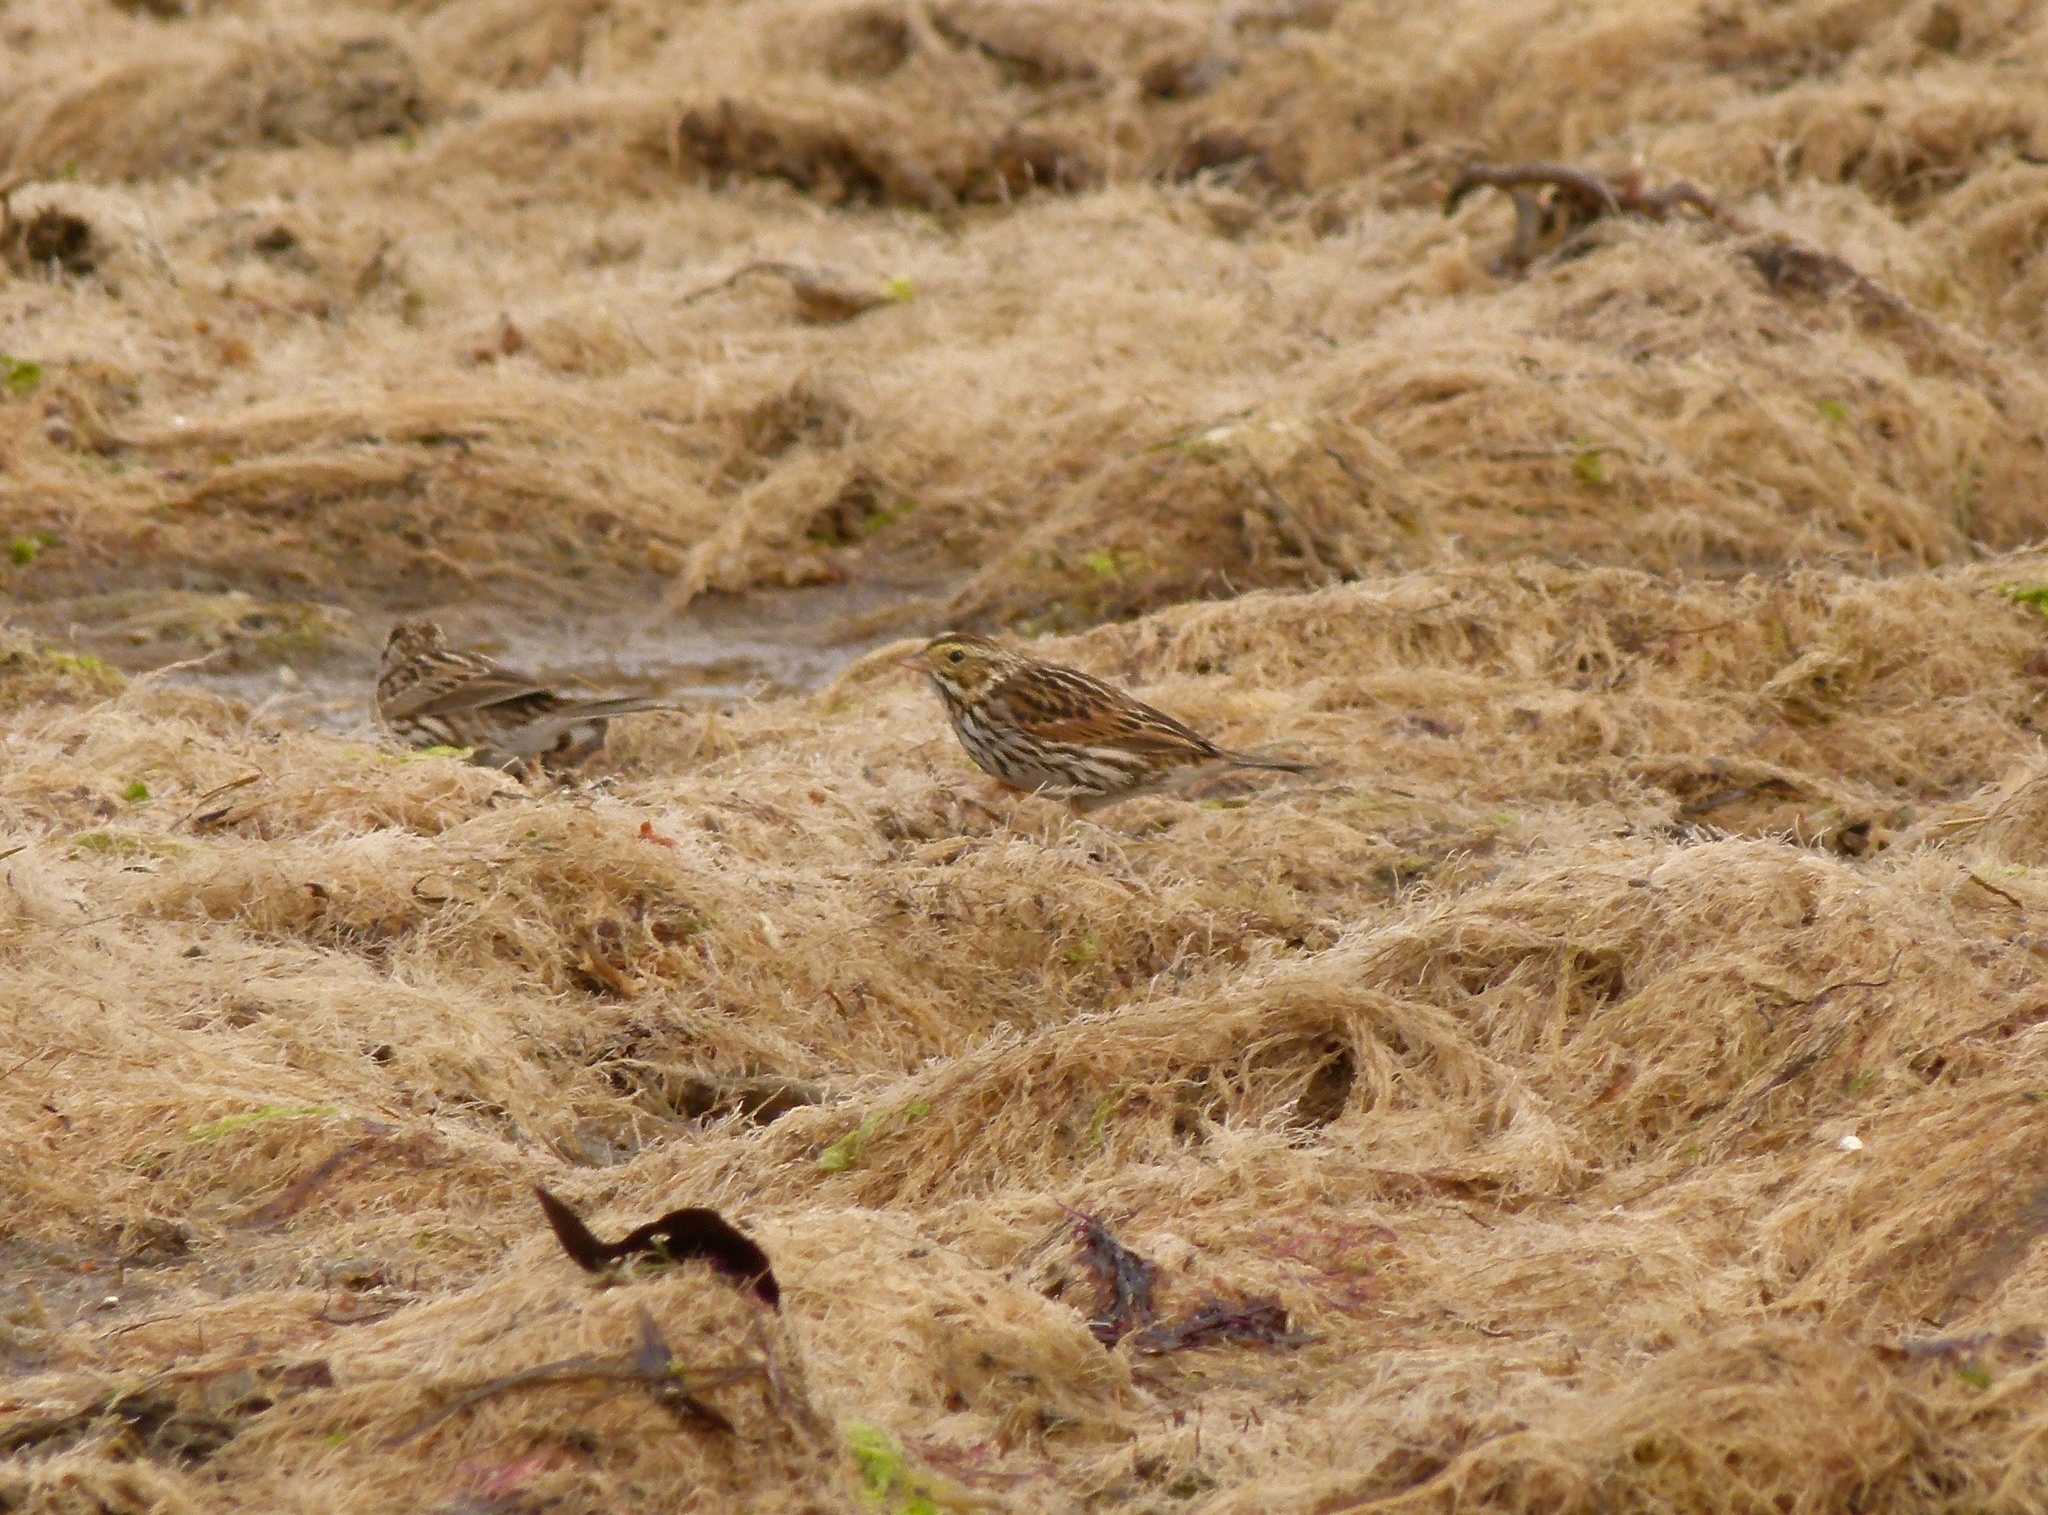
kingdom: Animalia
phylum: Chordata
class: Aves
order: Passeriformes
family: Passerellidae
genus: Passerculus
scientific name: Passerculus sandwichensis
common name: Savannah sparrow
